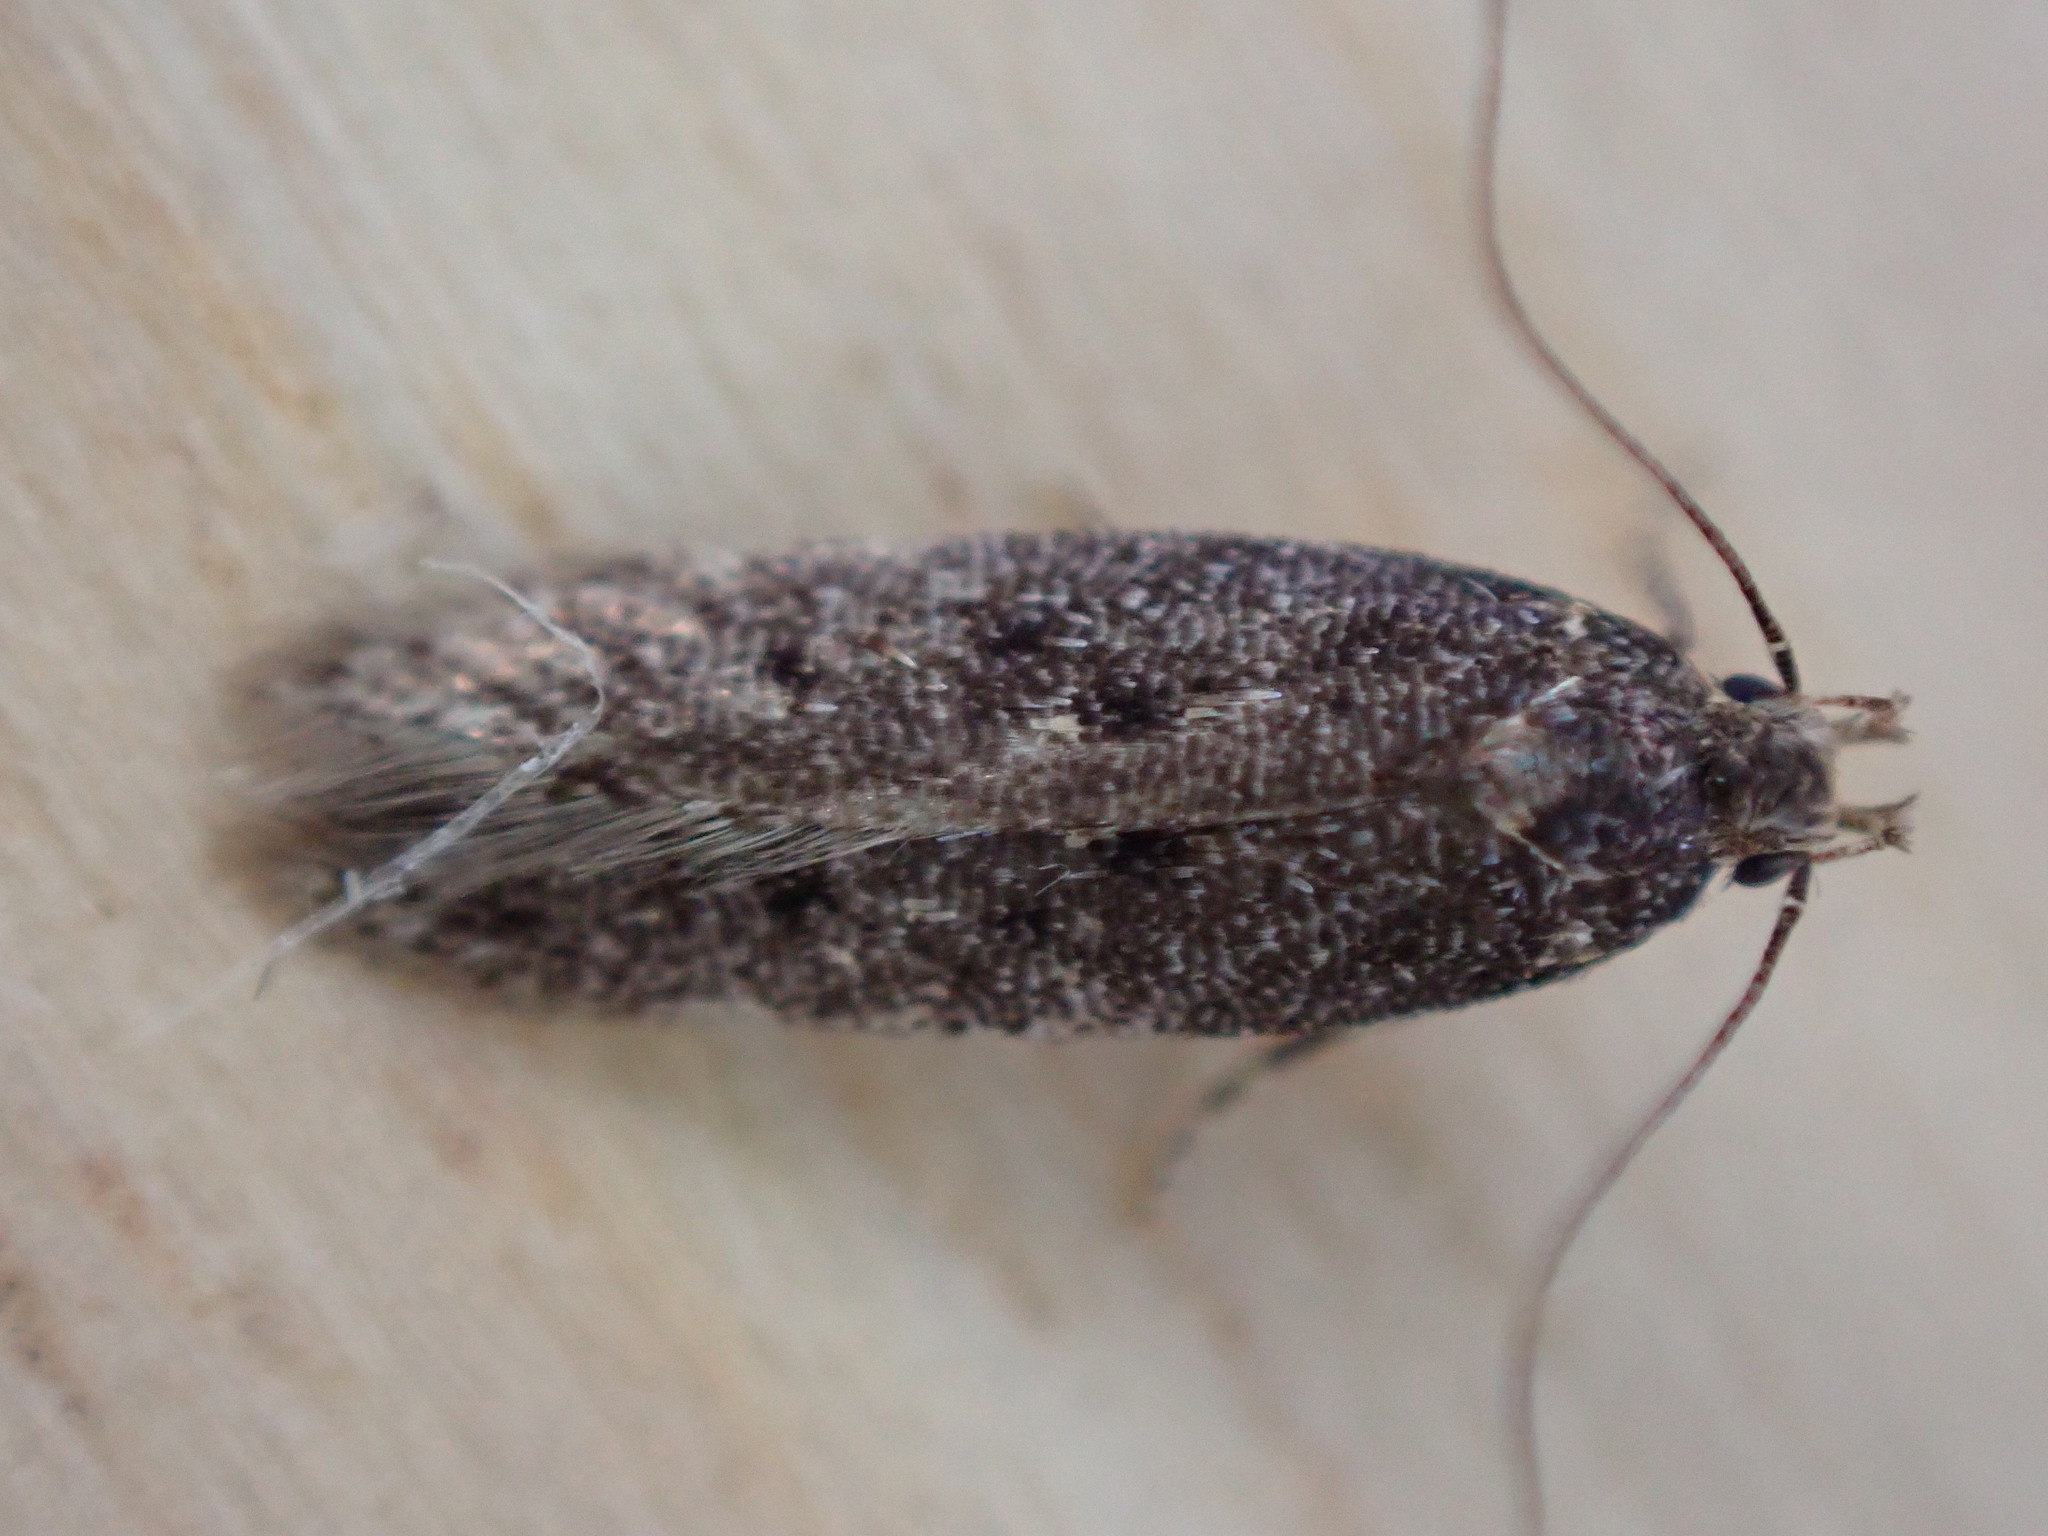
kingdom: Animalia
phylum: Arthropoda
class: Insecta
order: Lepidoptera
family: Gelechiidae
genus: Bryotropha
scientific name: Bryotropha affinis
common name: Dark groundling
